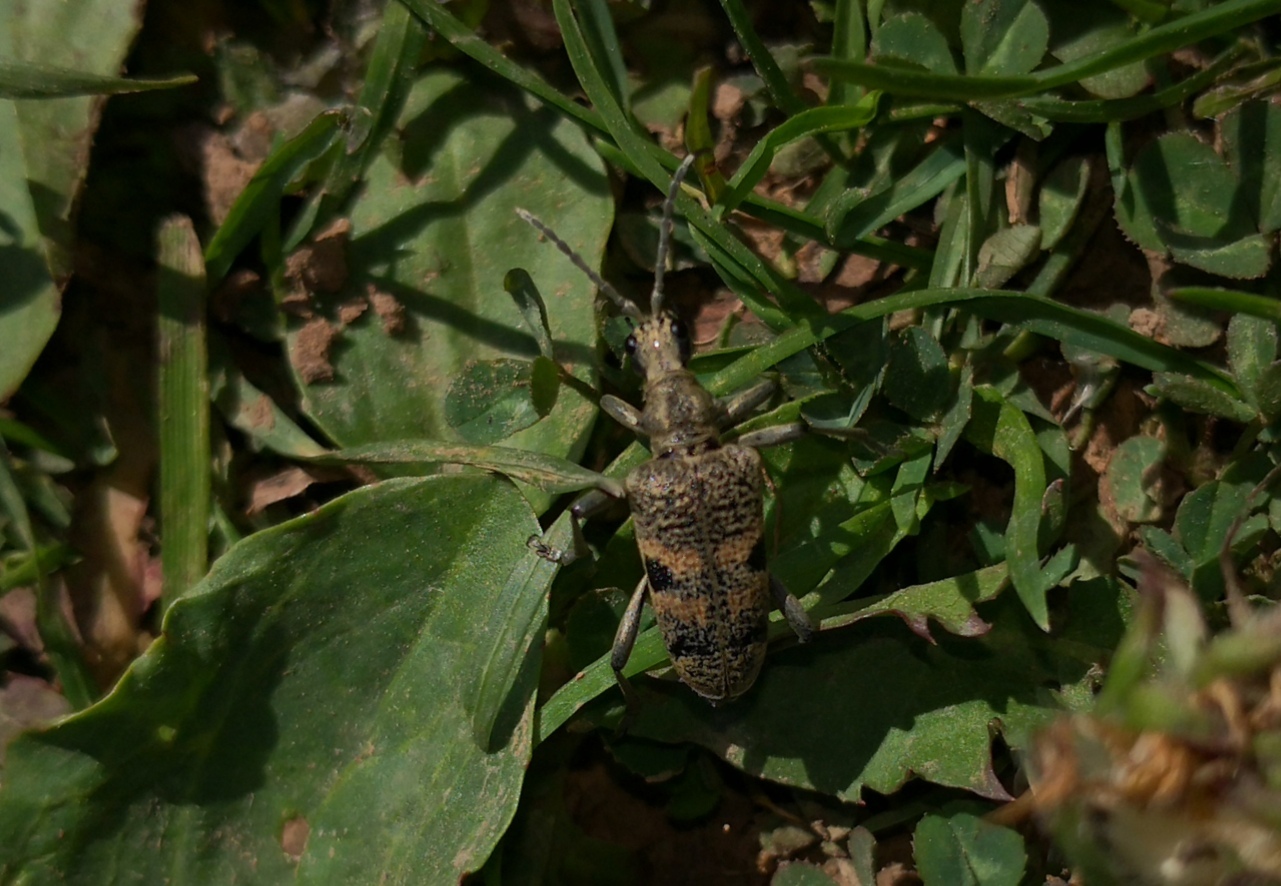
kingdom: Animalia
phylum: Arthropoda
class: Insecta
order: Coleoptera
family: Cerambycidae
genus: Rhagium
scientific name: Rhagium mordax
